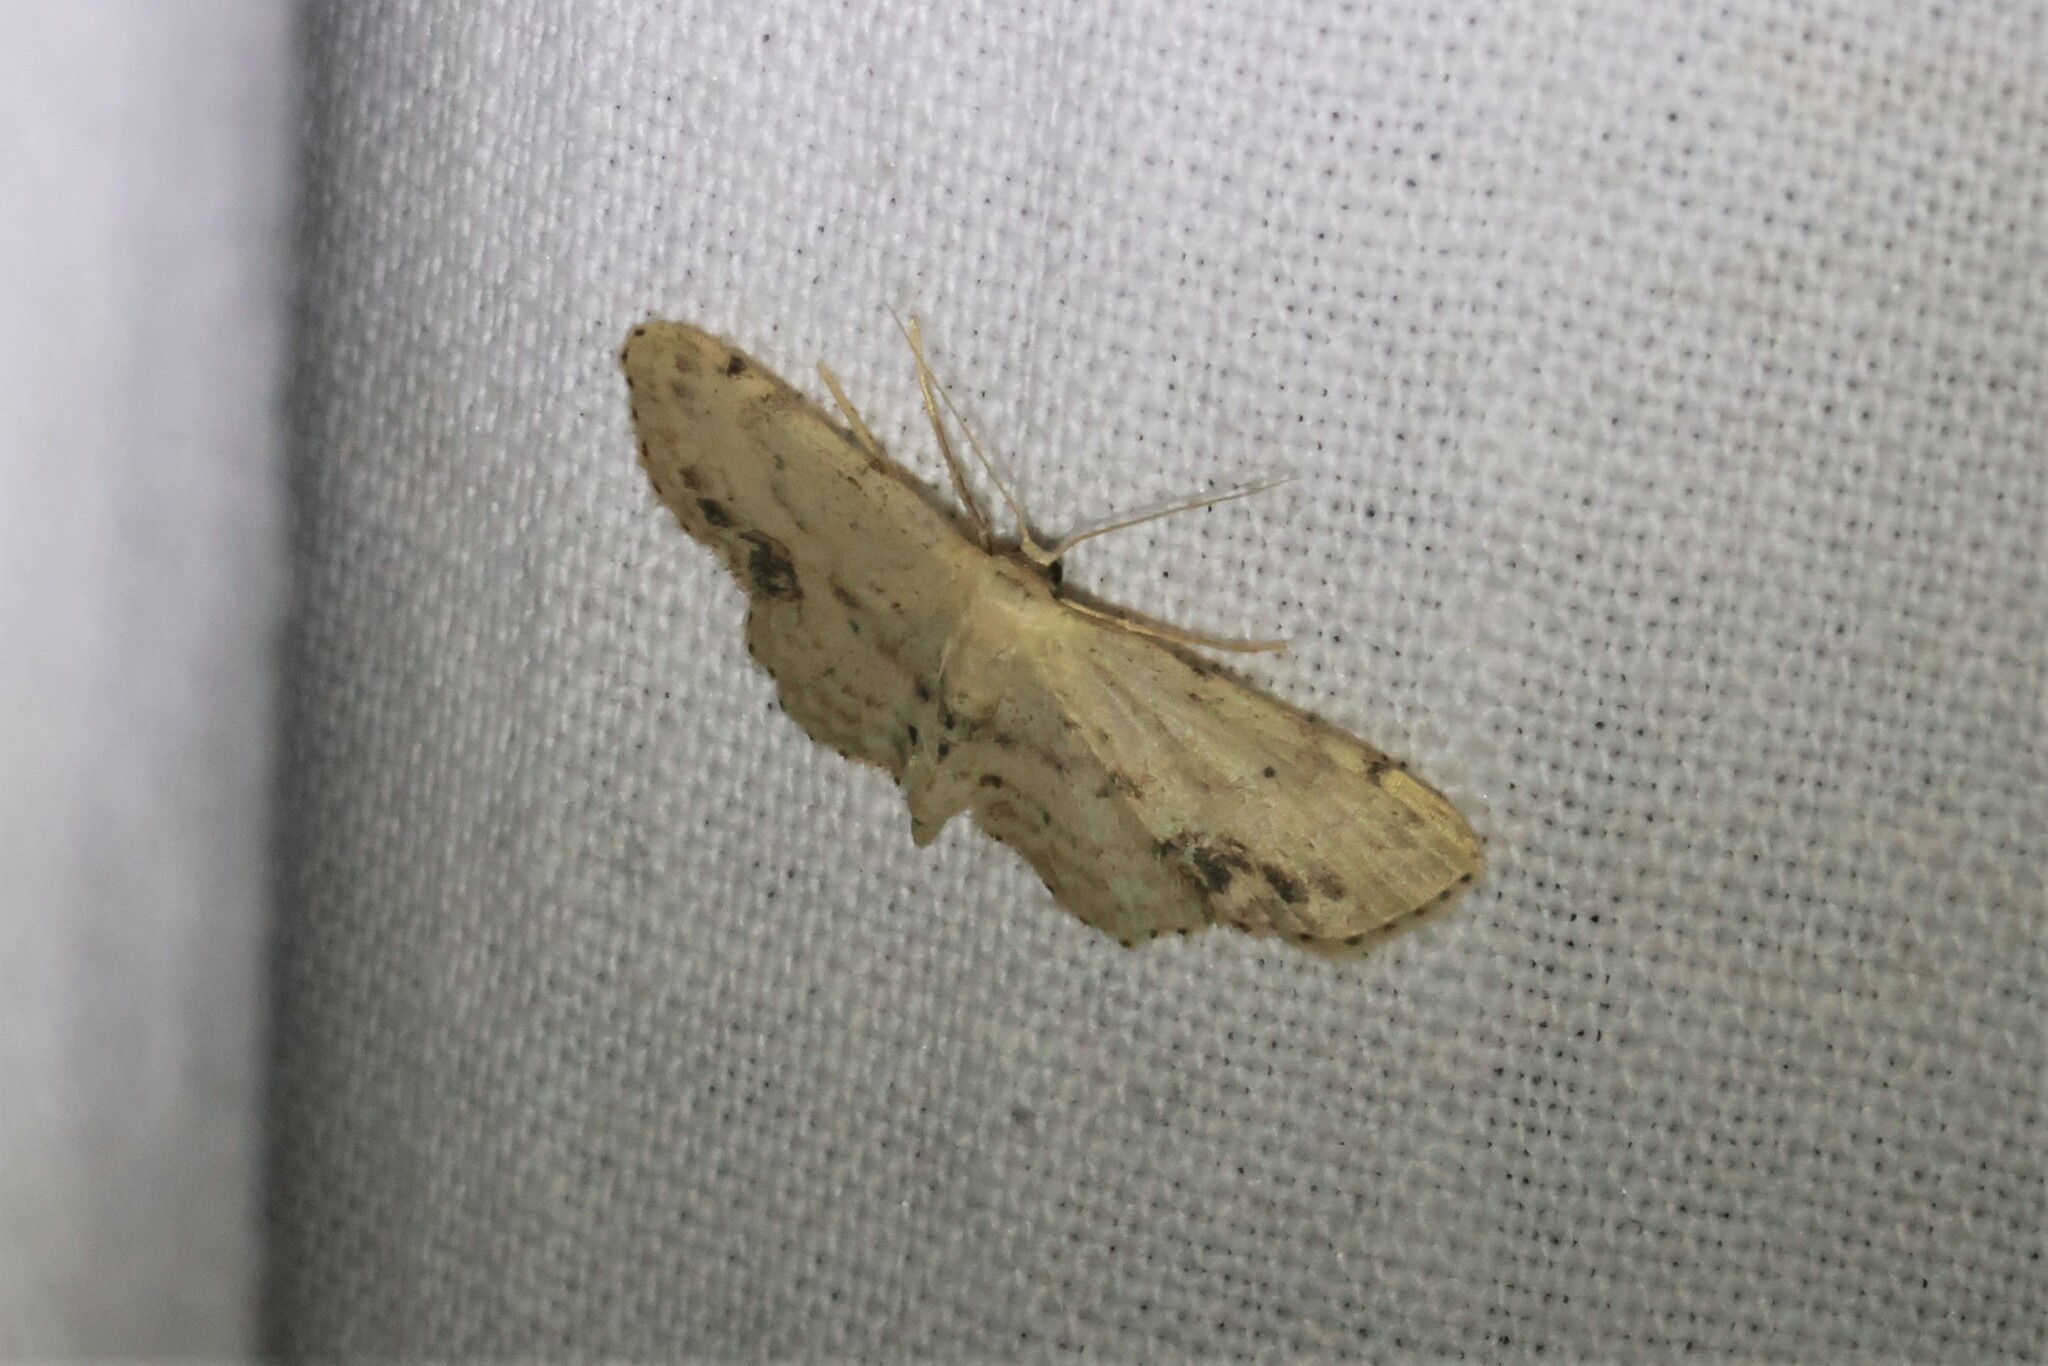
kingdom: Animalia
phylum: Arthropoda
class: Insecta
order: Lepidoptera
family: Geometridae
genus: Idaea
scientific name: Idaea dimidiata
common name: Single-dotted wave
